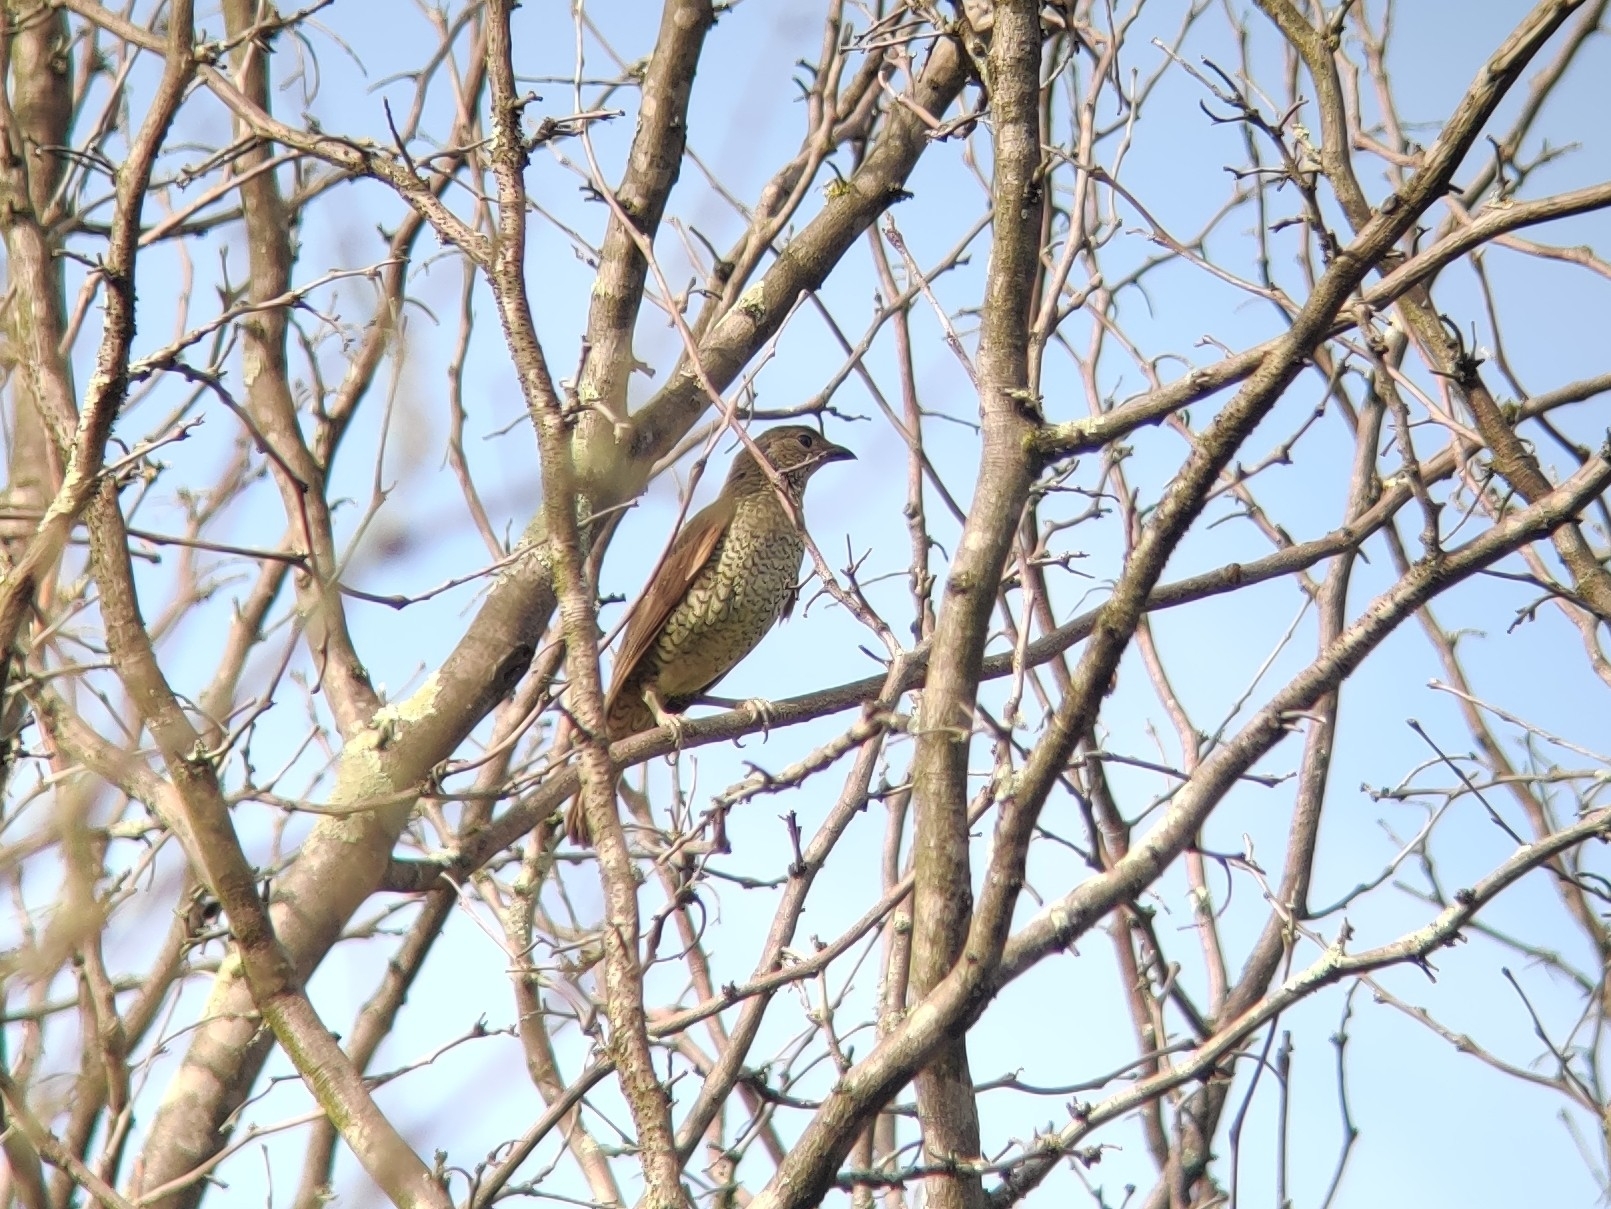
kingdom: Animalia
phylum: Chordata
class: Aves
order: Passeriformes
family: Ptilonorhynchidae
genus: Ptilonorhynchus
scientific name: Ptilonorhynchus violaceus
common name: Satin bowerbird
